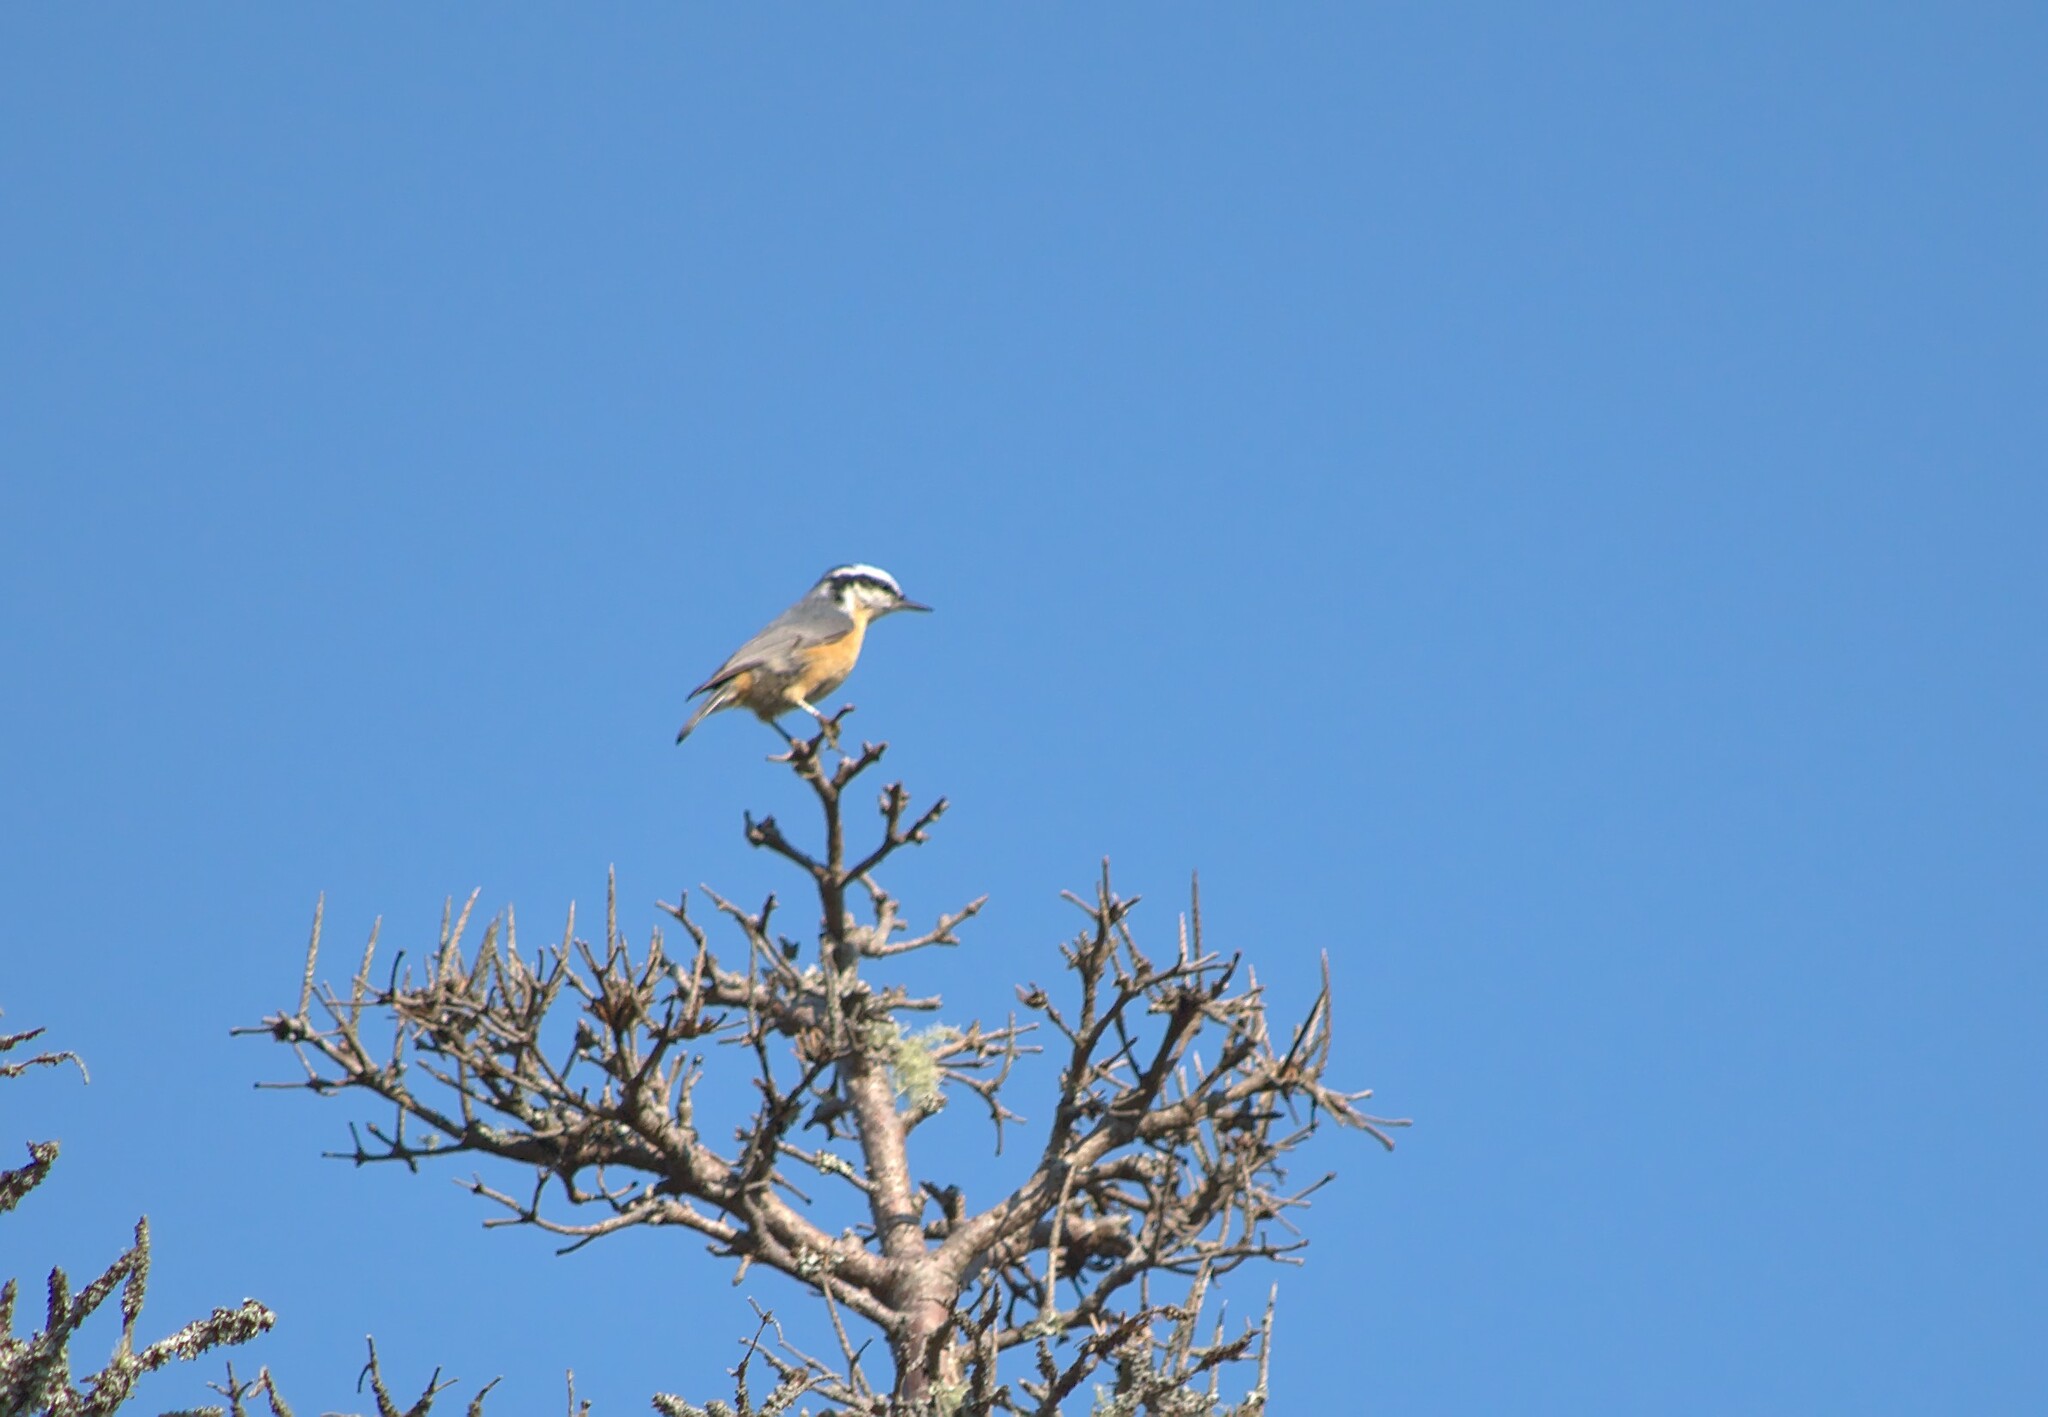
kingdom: Animalia
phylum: Chordata
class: Aves
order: Passeriformes
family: Sittidae
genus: Sitta
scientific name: Sitta canadensis
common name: Red-breasted nuthatch
